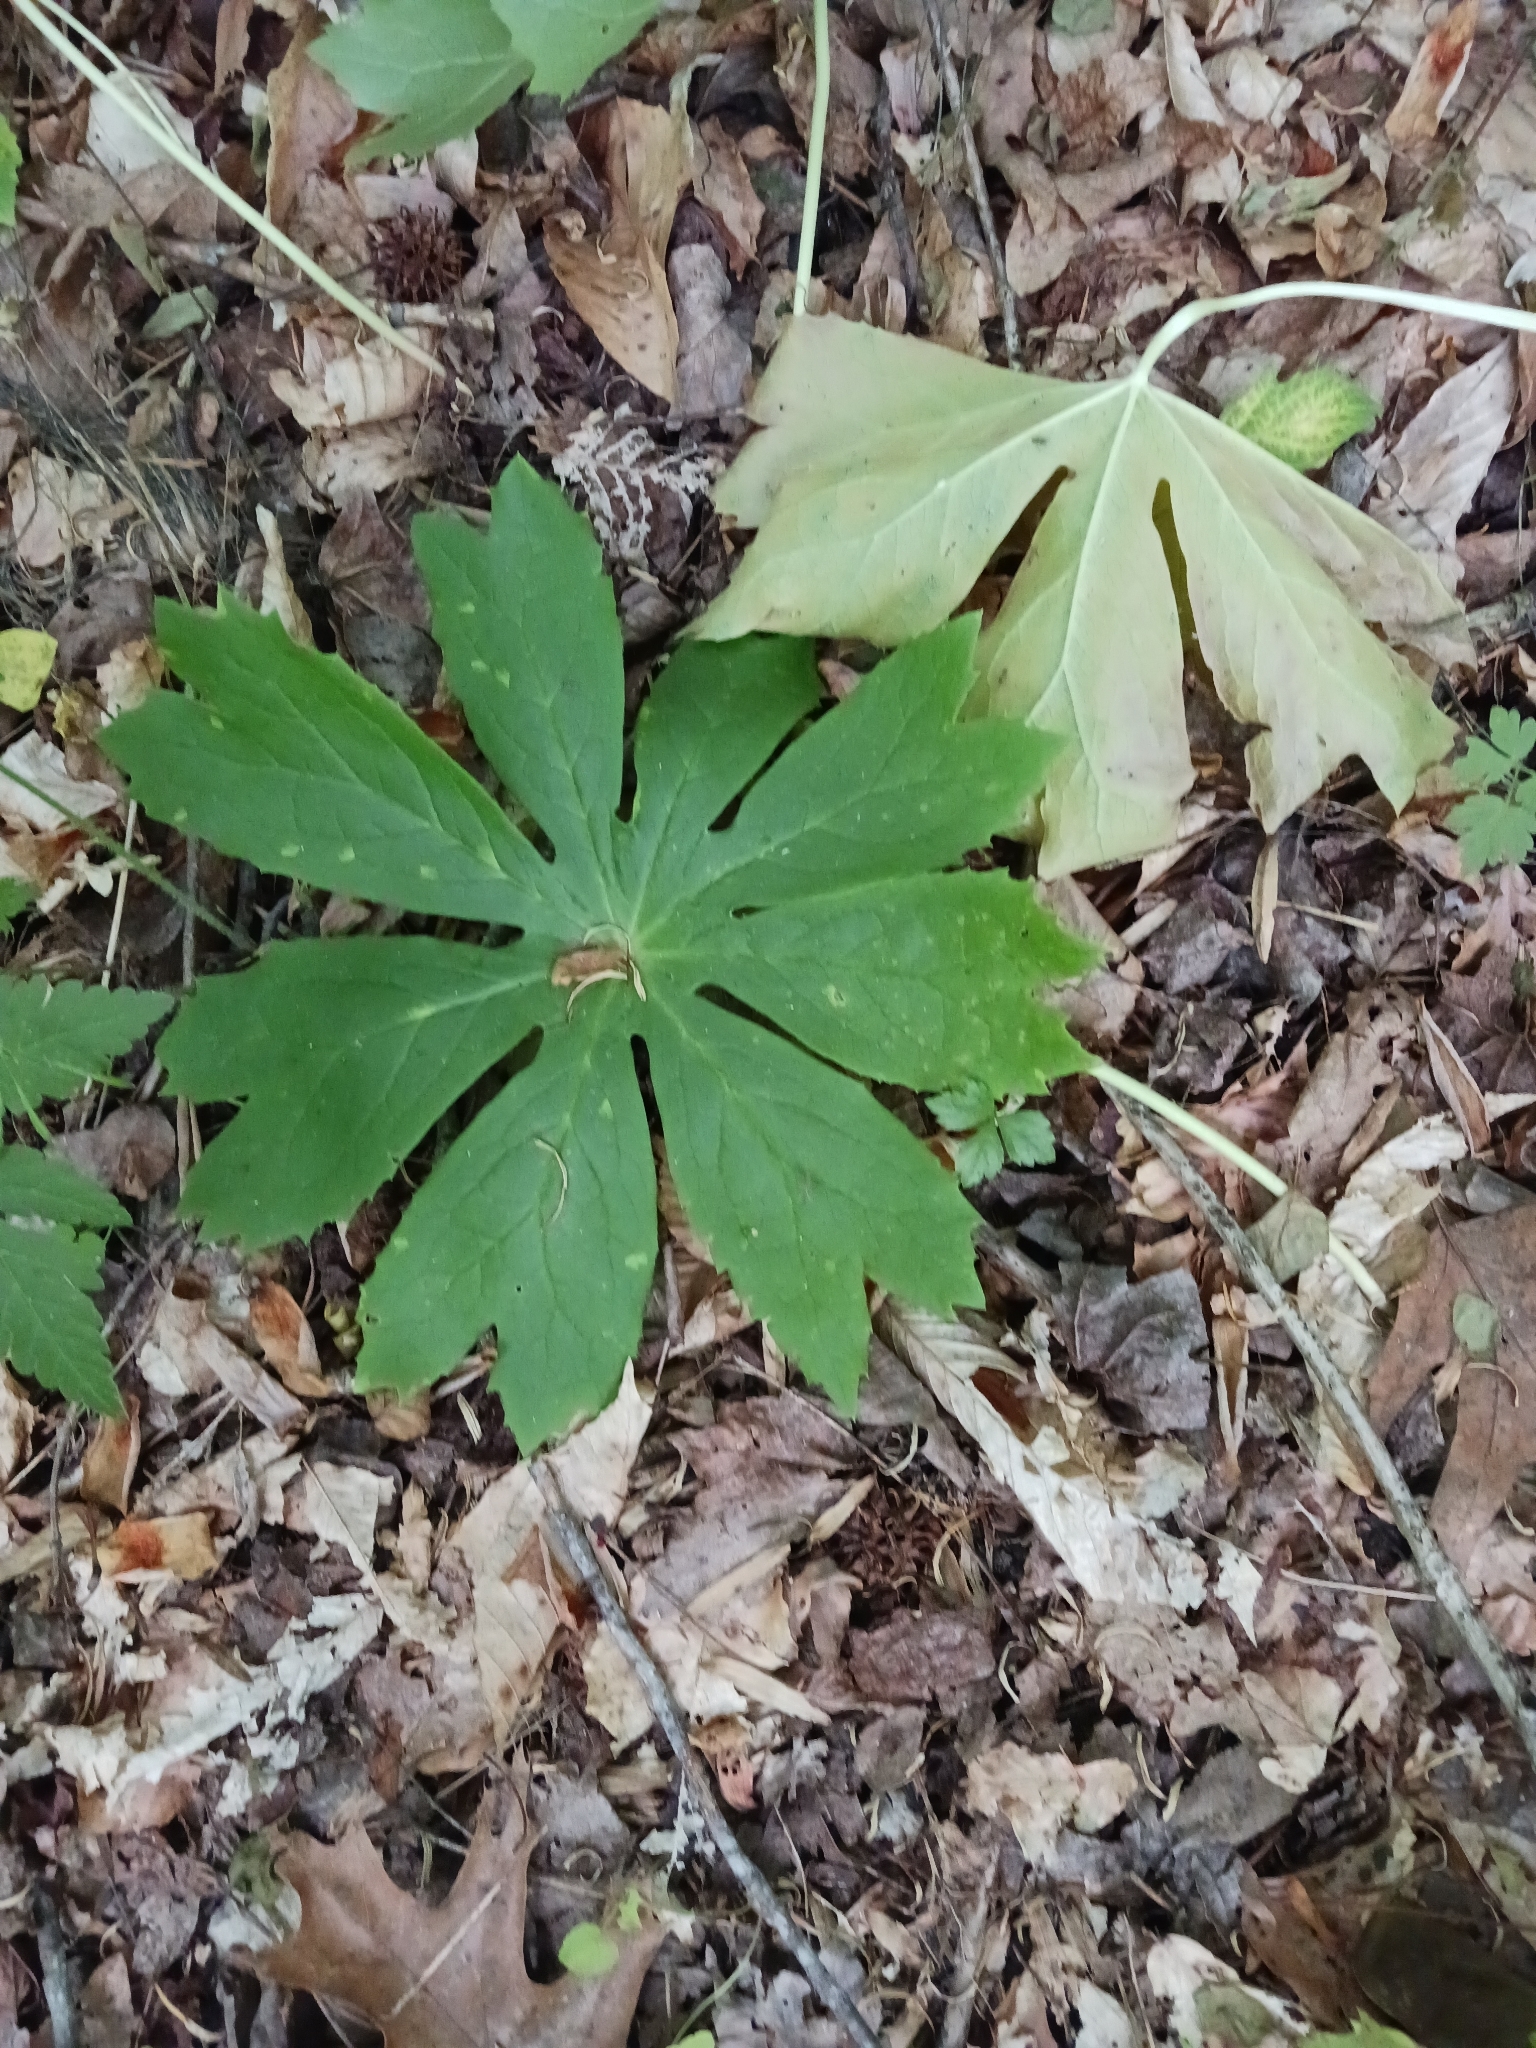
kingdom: Plantae
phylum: Tracheophyta
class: Magnoliopsida
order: Ranunculales
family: Berberidaceae
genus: Podophyllum
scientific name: Podophyllum peltatum
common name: Wild mandrake
